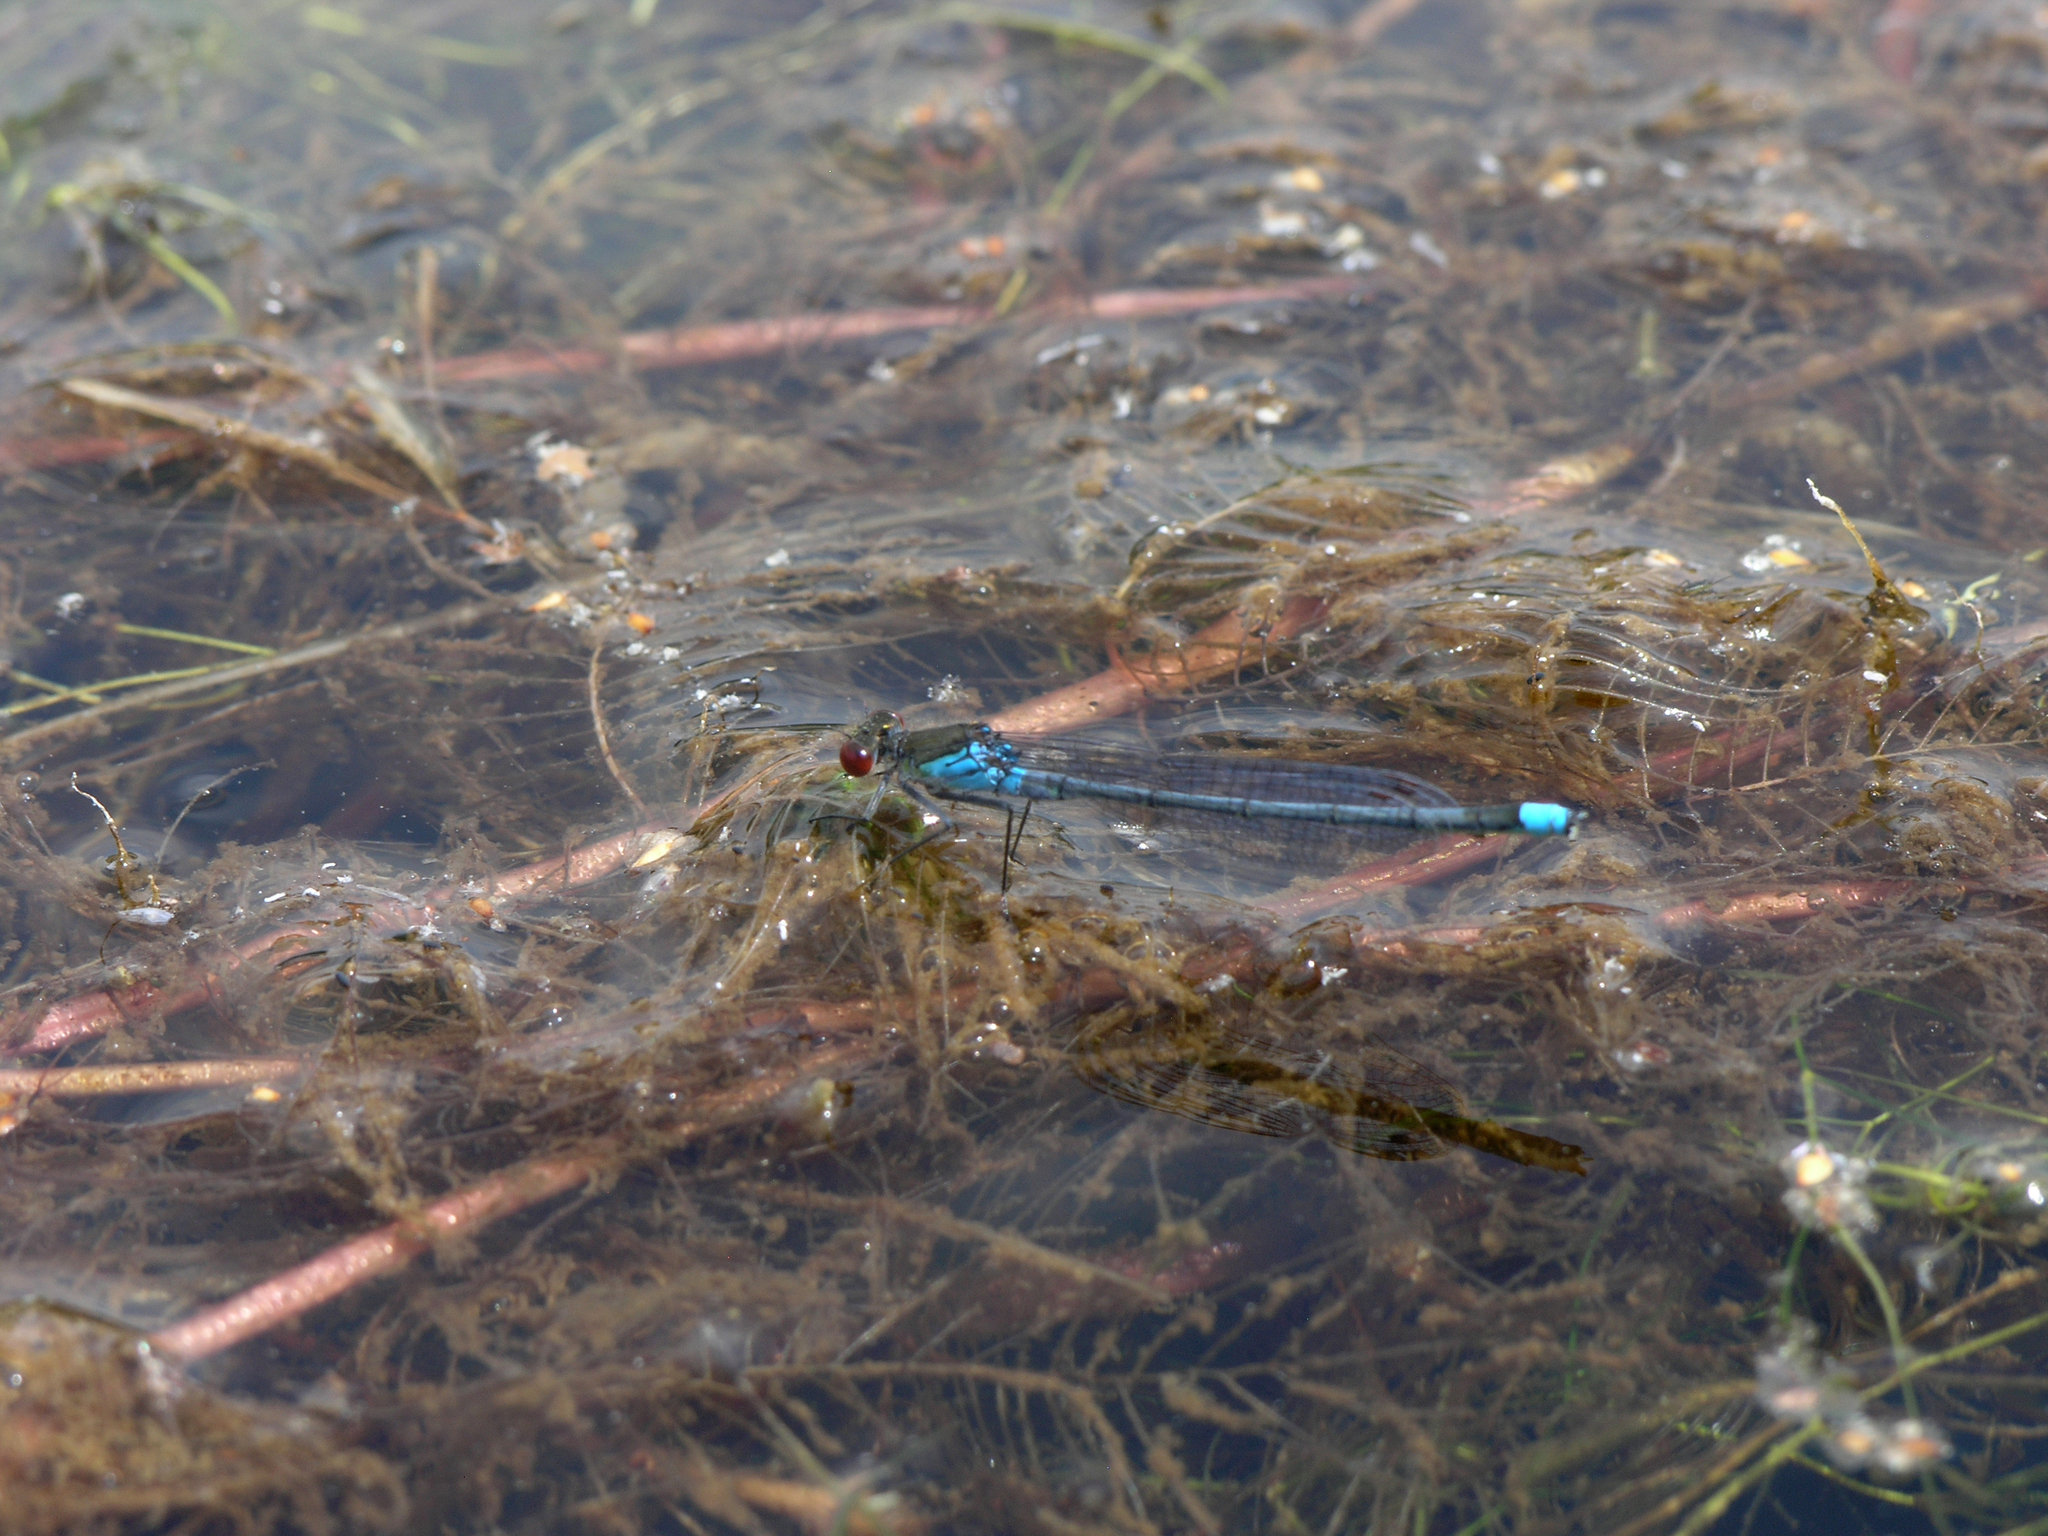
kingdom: Animalia
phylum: Arthropoda
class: Insecta
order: Odonata
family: Coenagrionidae
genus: Erythromma
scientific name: Erythromma najas
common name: Red-eyed damselfly
